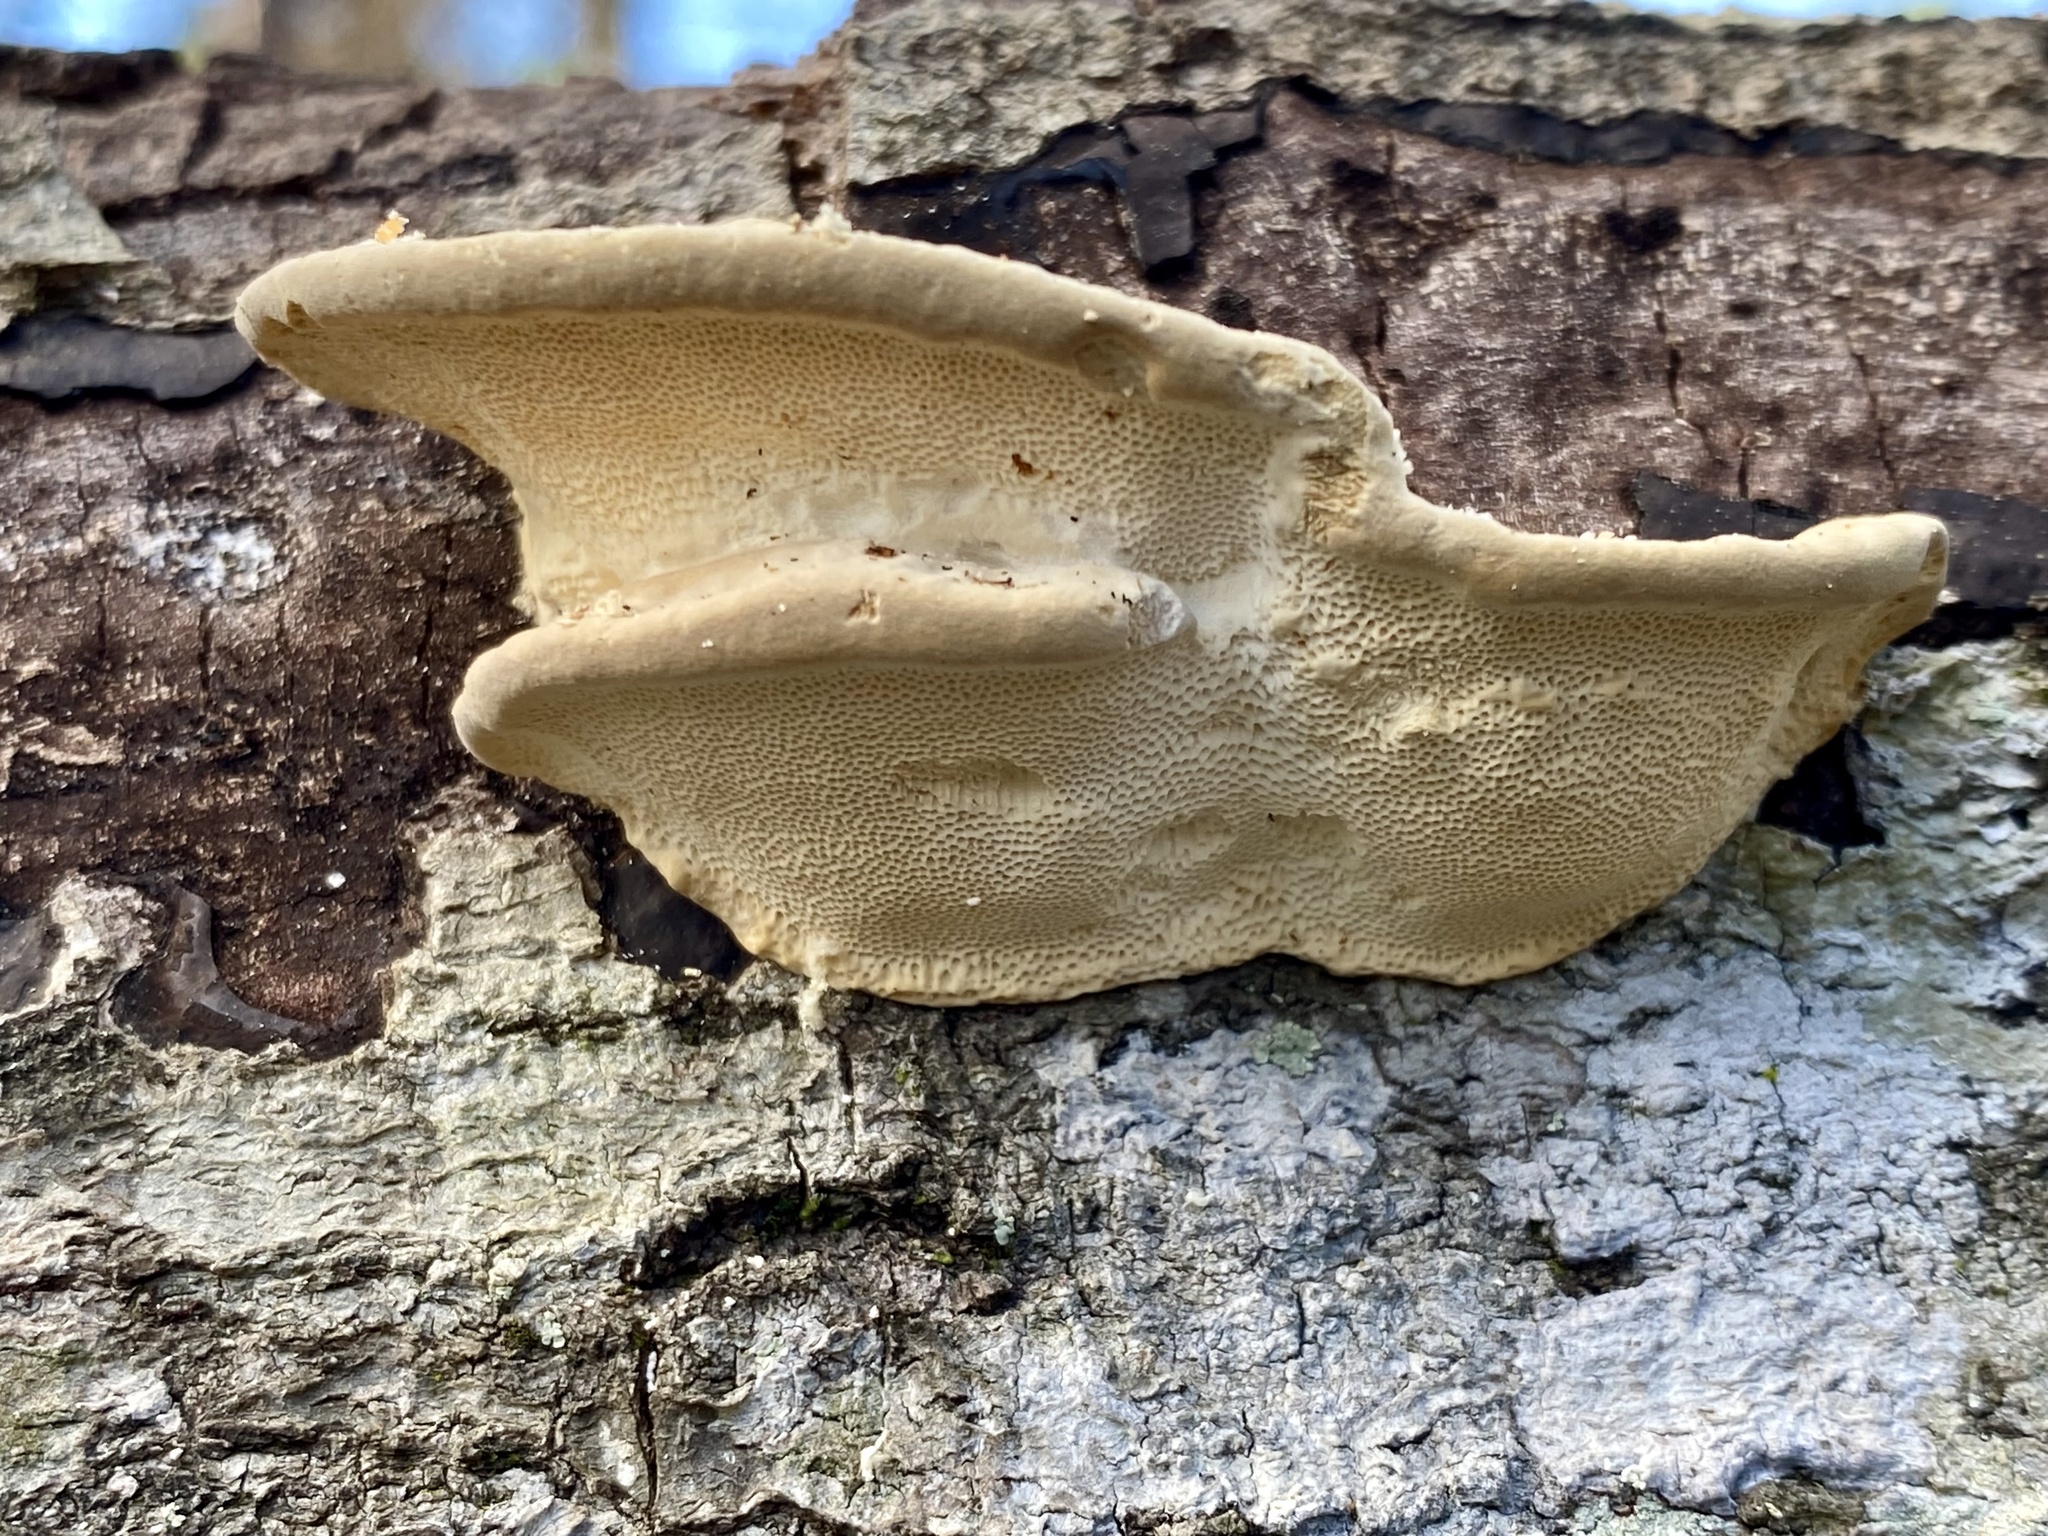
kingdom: Fungi
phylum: Basidiomycota
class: Agaricomycetes
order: Polyporales
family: Polyporaceae
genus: Trametes
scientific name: Trametes lactinea
